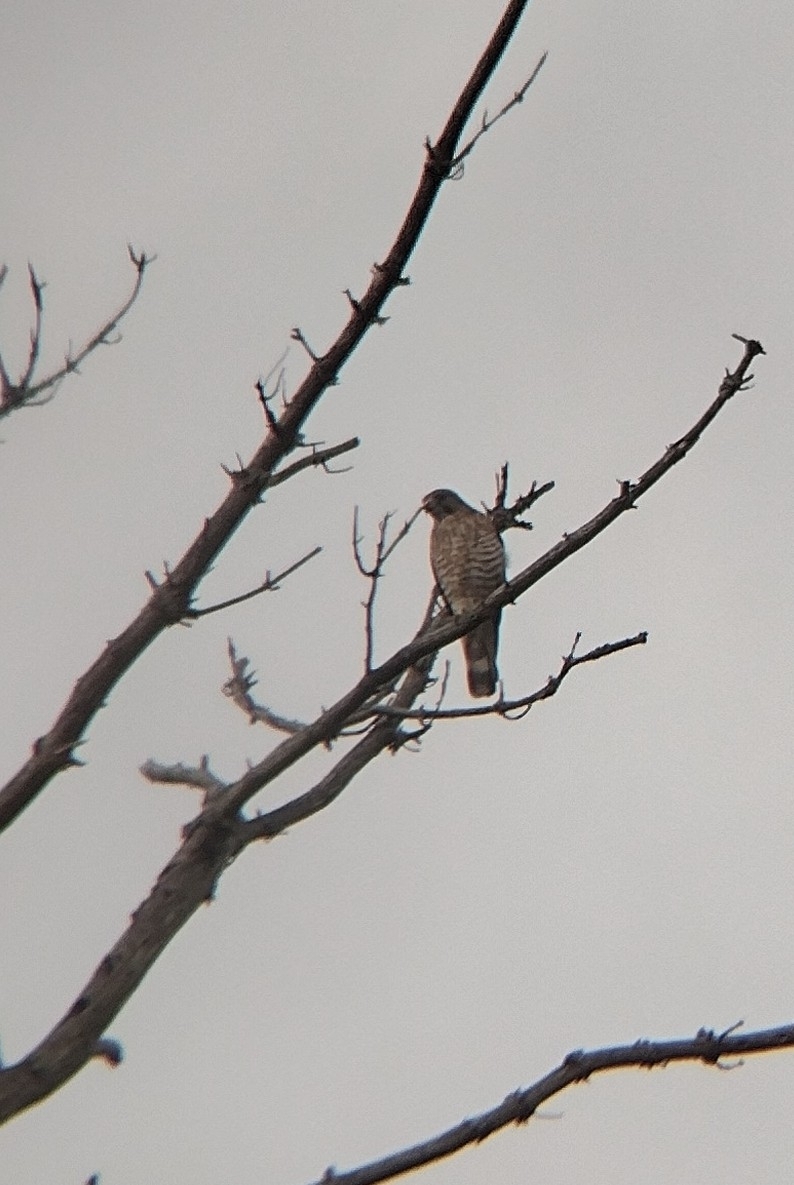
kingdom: Animalia
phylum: Chordata
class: Aves
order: Accipitriformes
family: Accipitridae
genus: Buteo
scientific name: Buteo platypterus
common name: Broad-winged hawk
